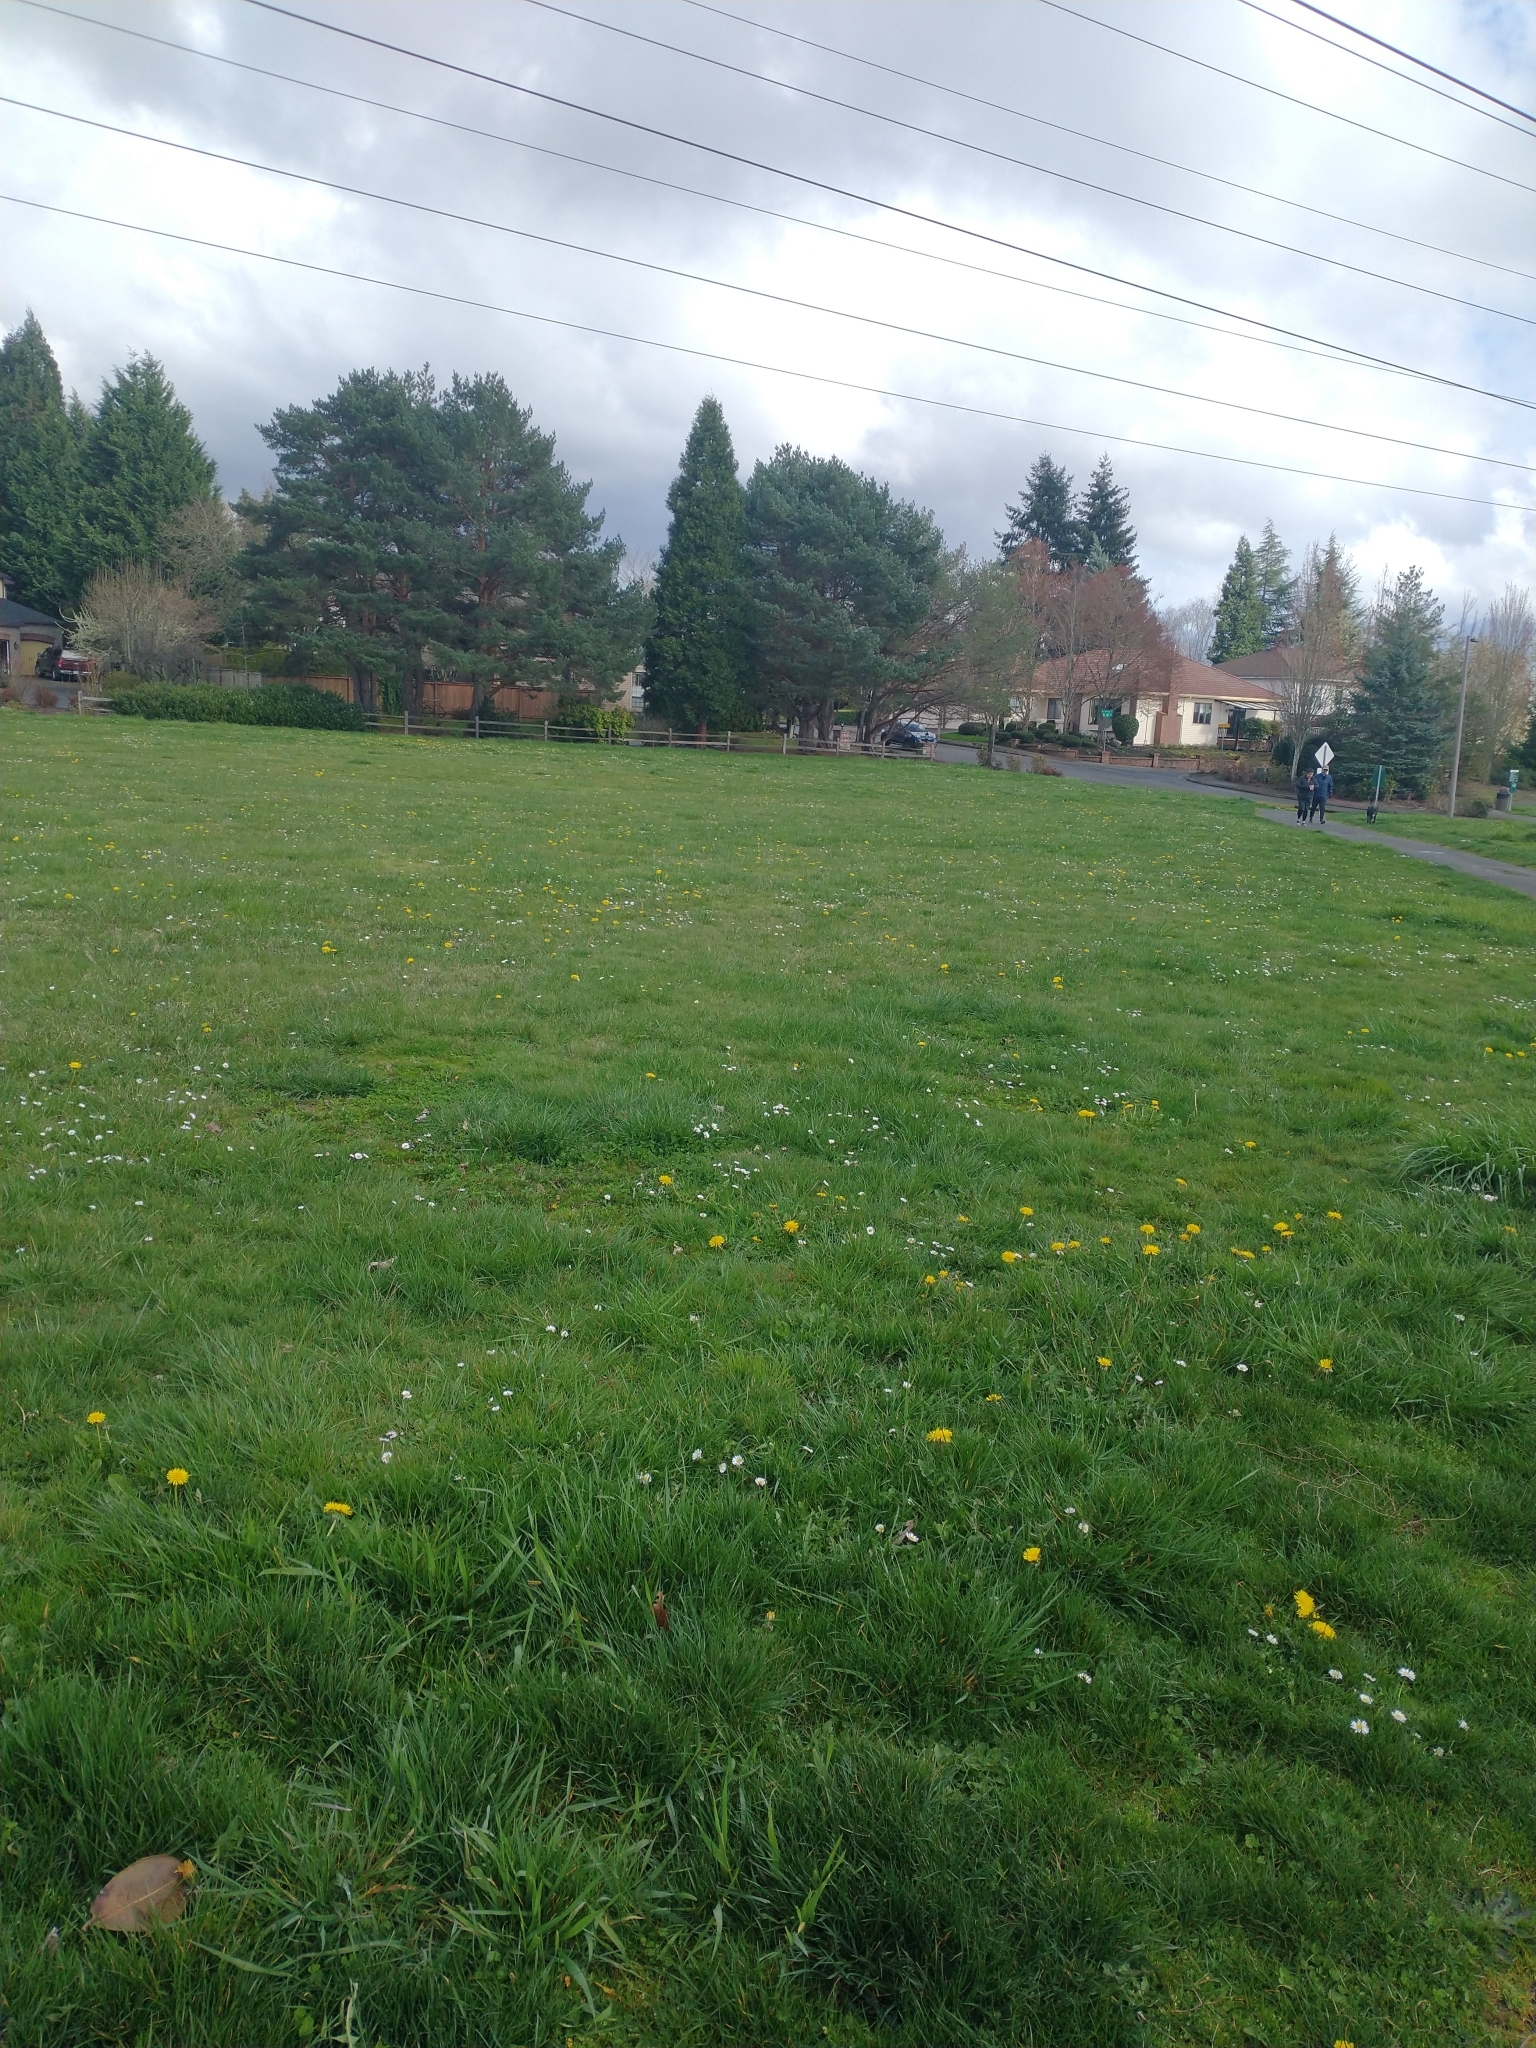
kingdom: Plantae
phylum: Tracheophyta
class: Magnoliopsida
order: Asterales
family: Asteraceae
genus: Bellis
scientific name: Bellis perennis
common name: Lawndaisy
